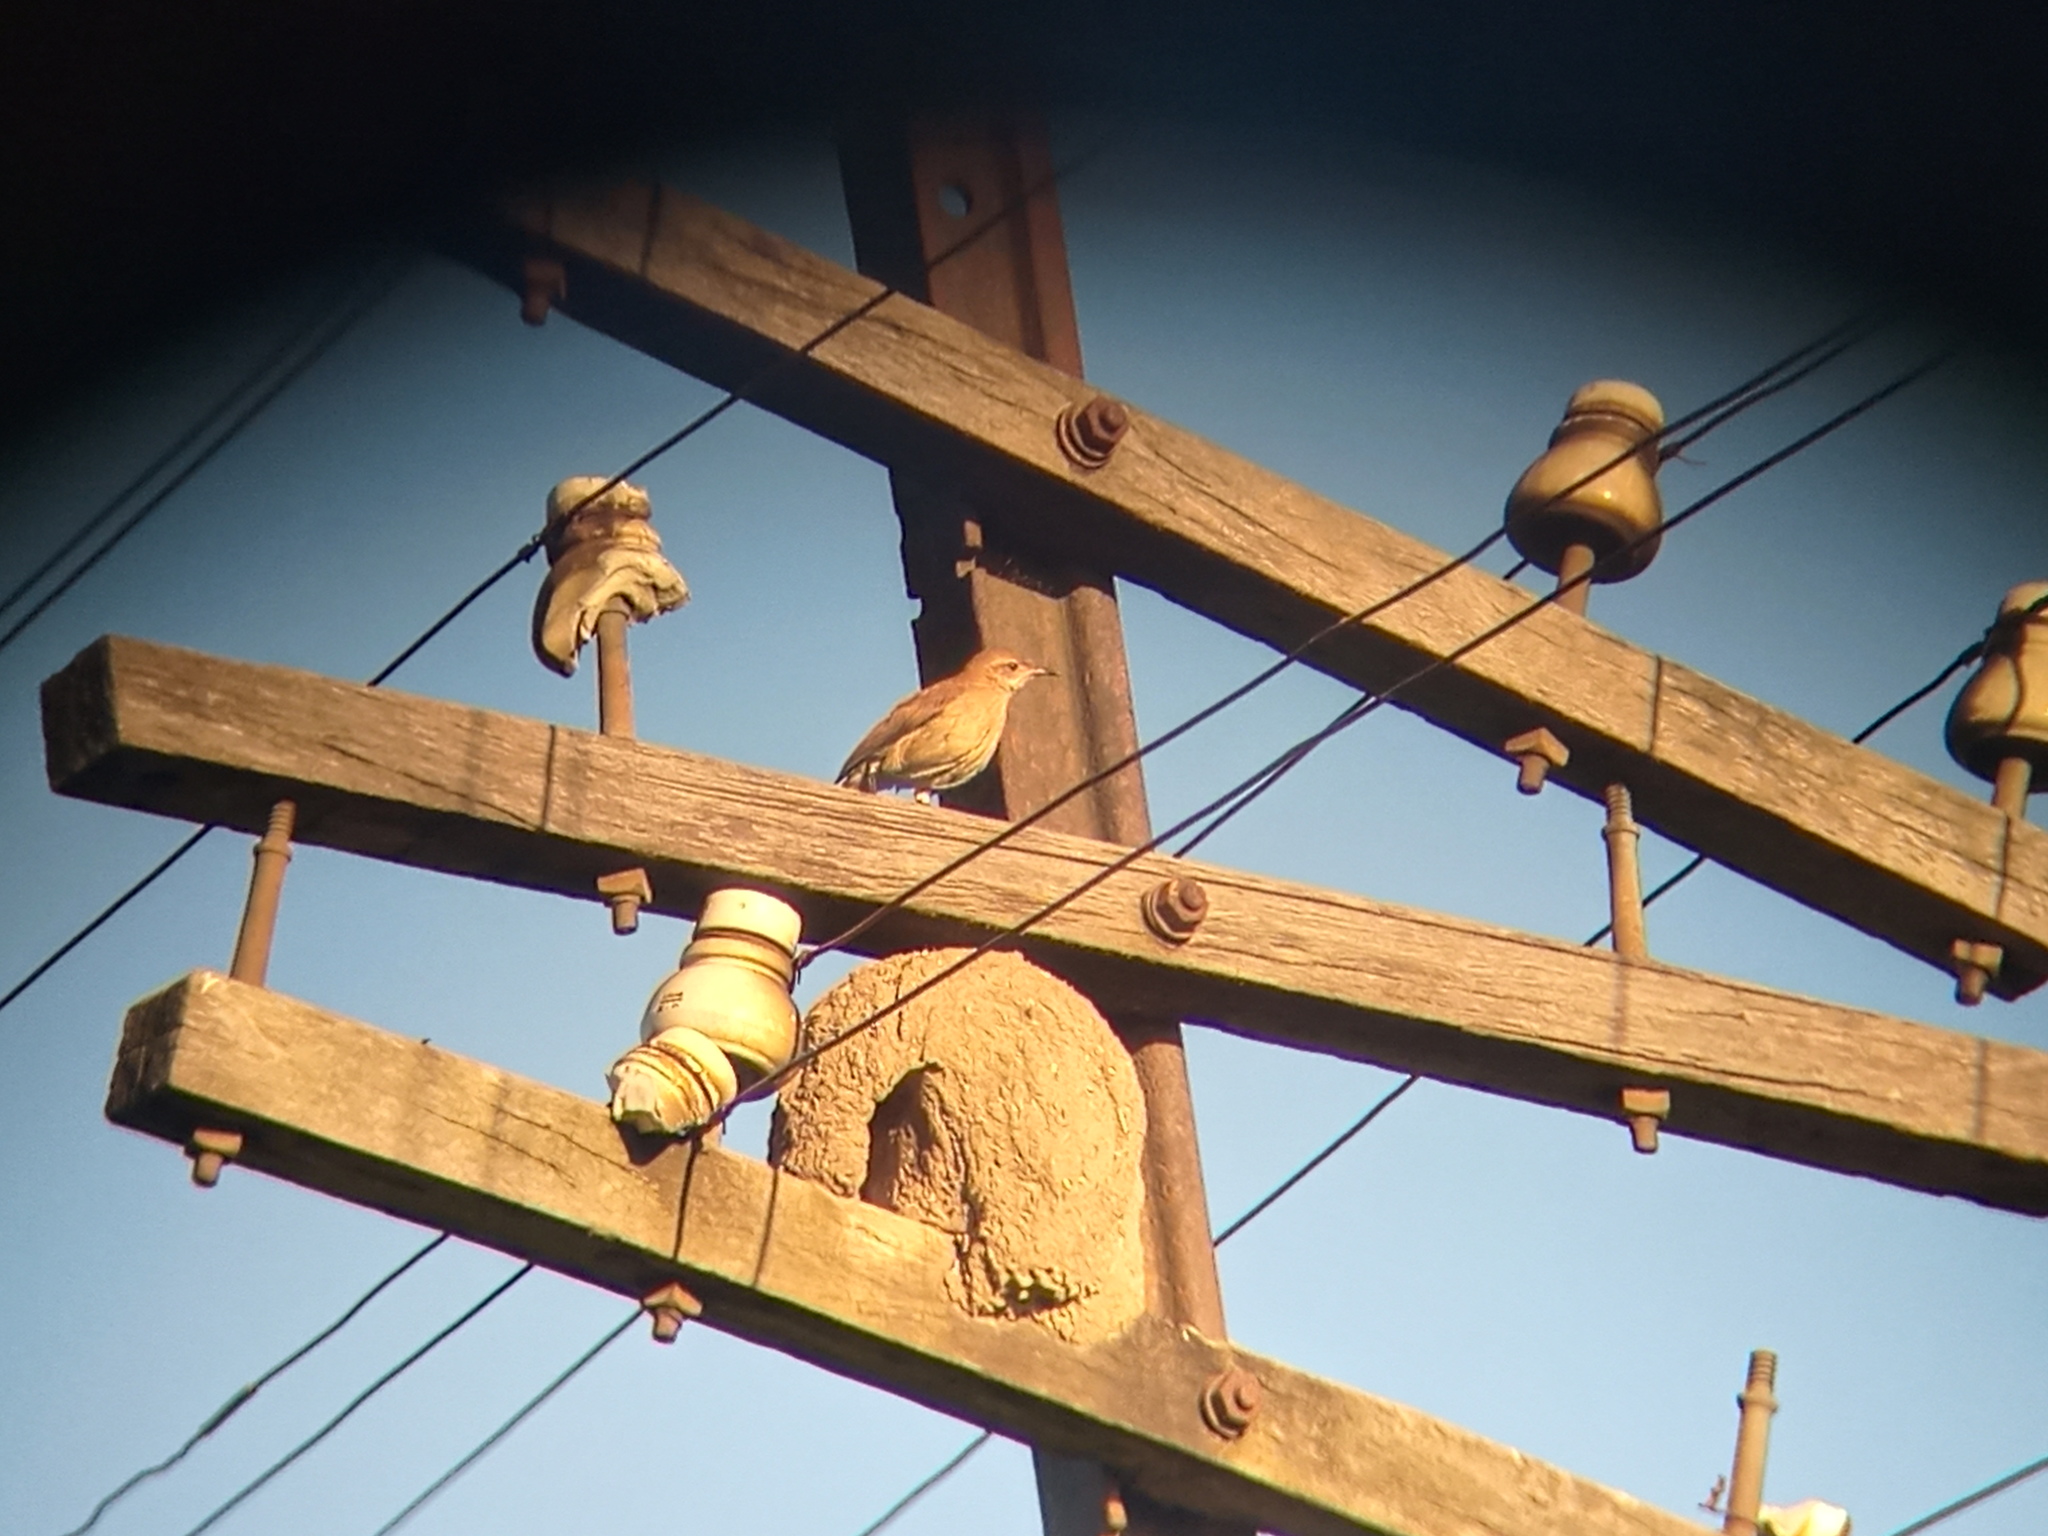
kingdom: Animalia
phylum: Chordata
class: Aves
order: Passeriformes
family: Furnariidae
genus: Furnarius
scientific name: Furnarius rufus
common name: Rufous hornero
